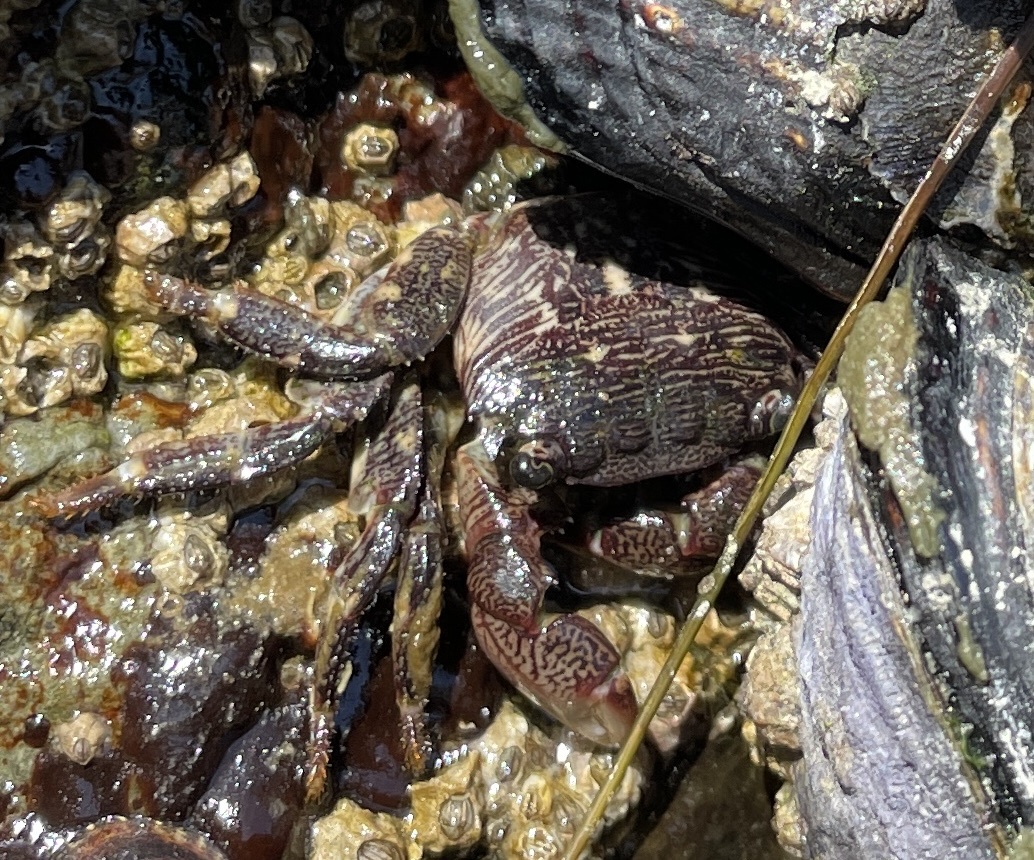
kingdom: Animalia
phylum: Arthropoda
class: Malacostraca
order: Decapoda
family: Grapsidae
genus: Pachygrapsus
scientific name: Pachygrapsus crassipes
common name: Striped shore crab
